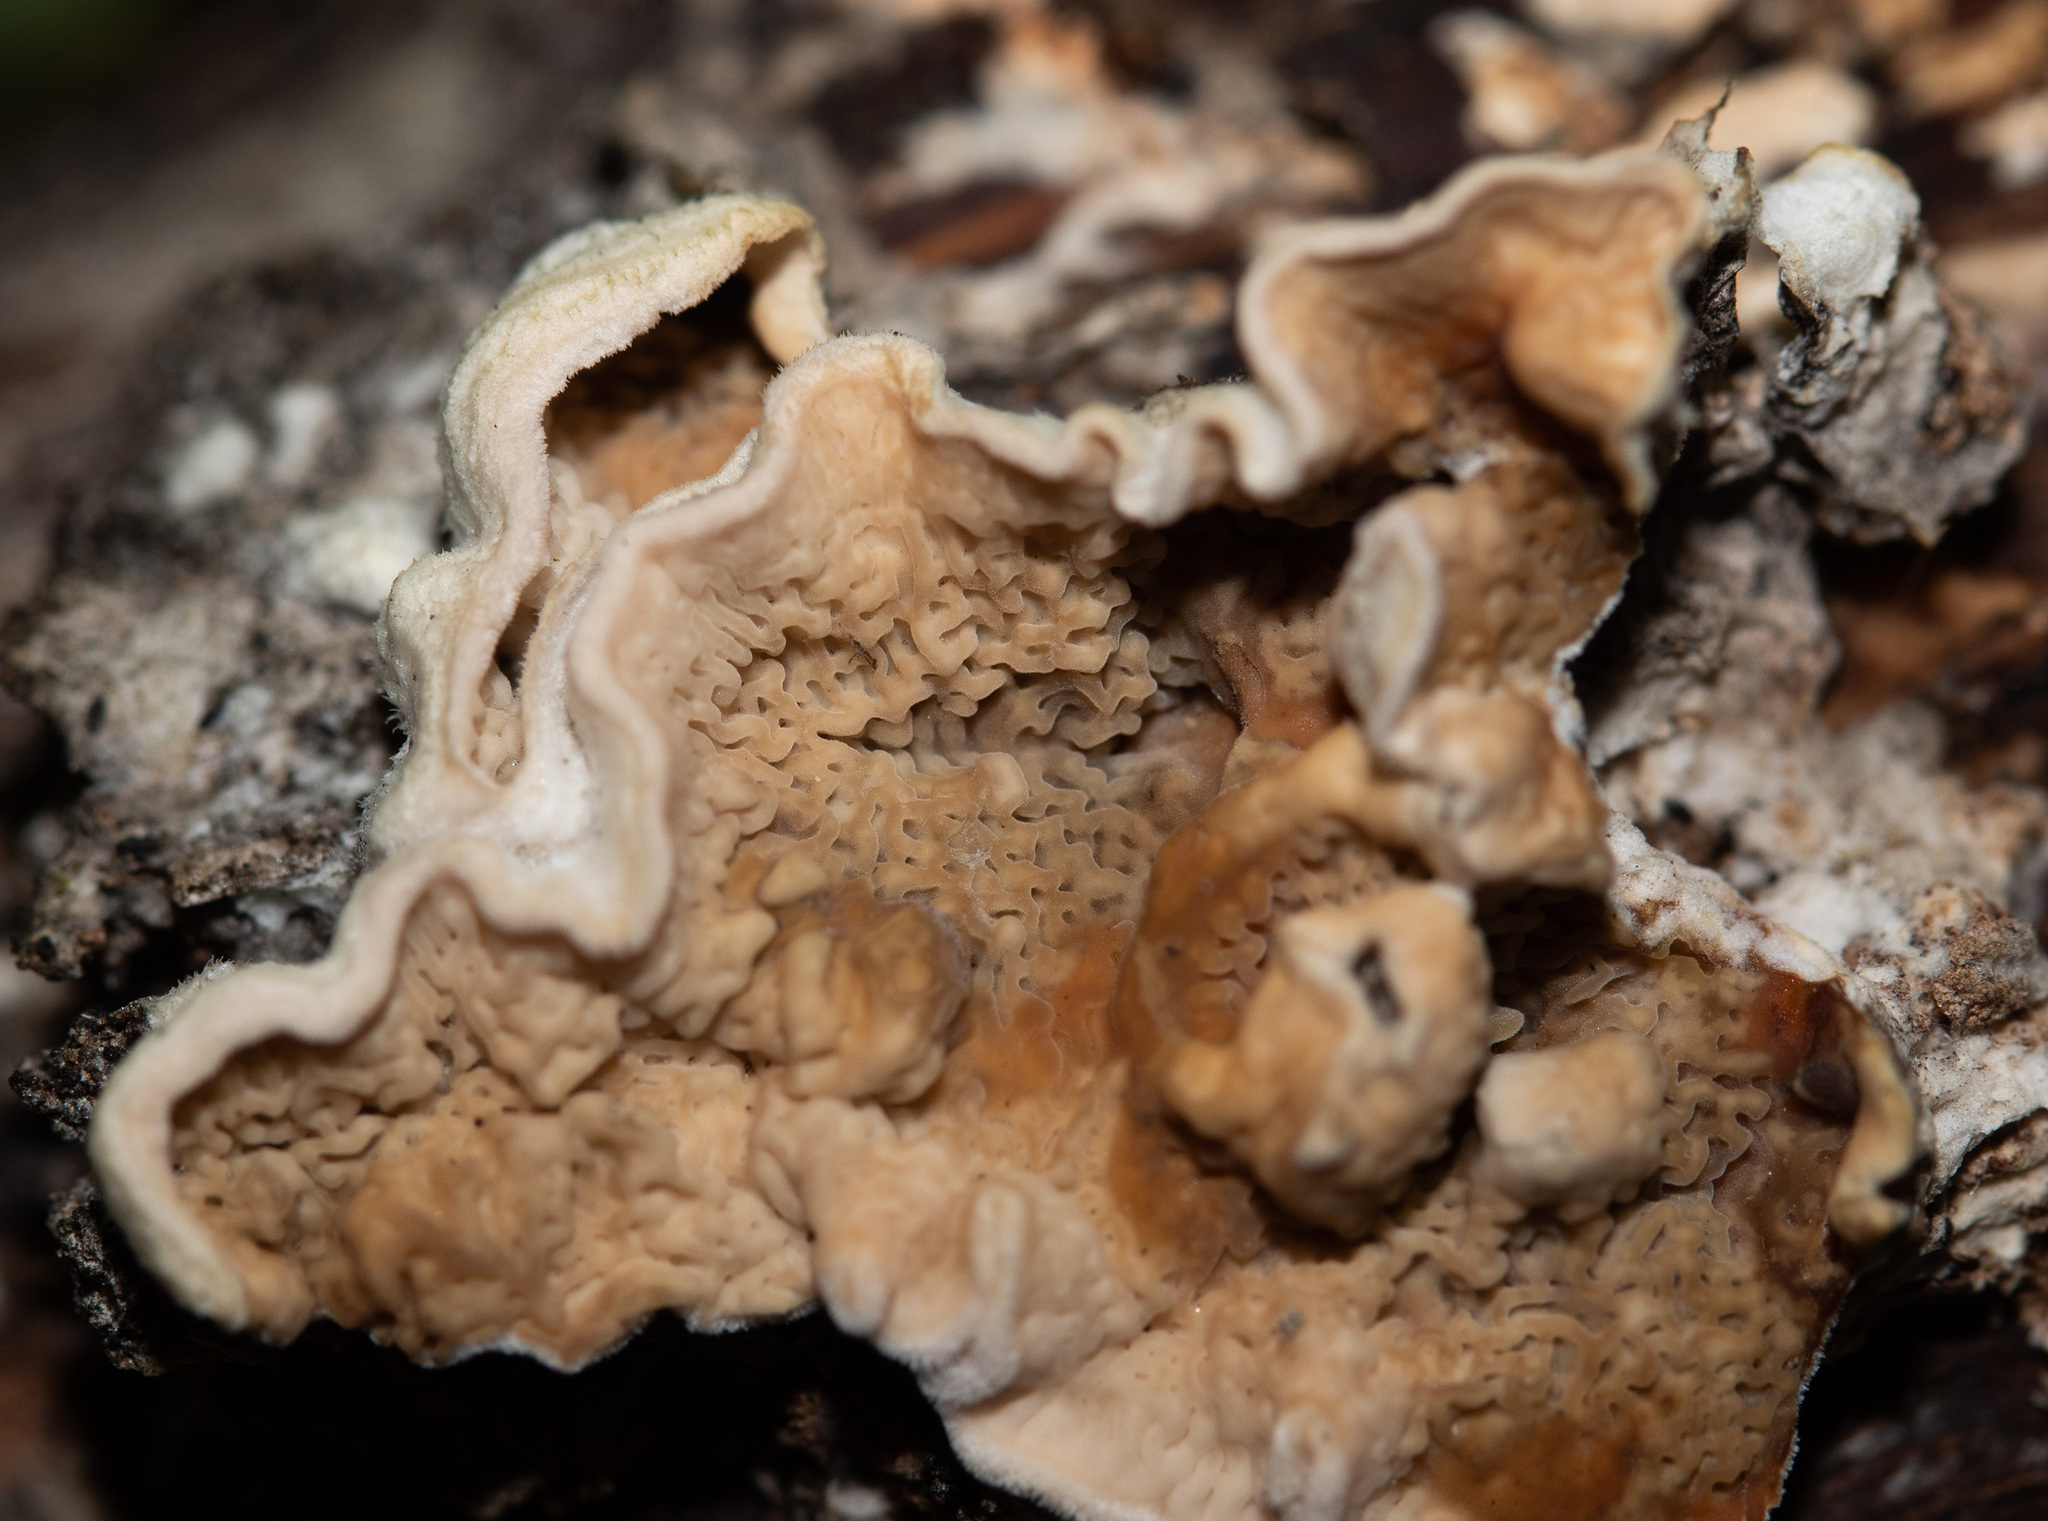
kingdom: Fungi
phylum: Basidiomycota
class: Agaricomycetes
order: Boletales
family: Serpulaceae
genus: Serpula
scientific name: Serpula himantioides
